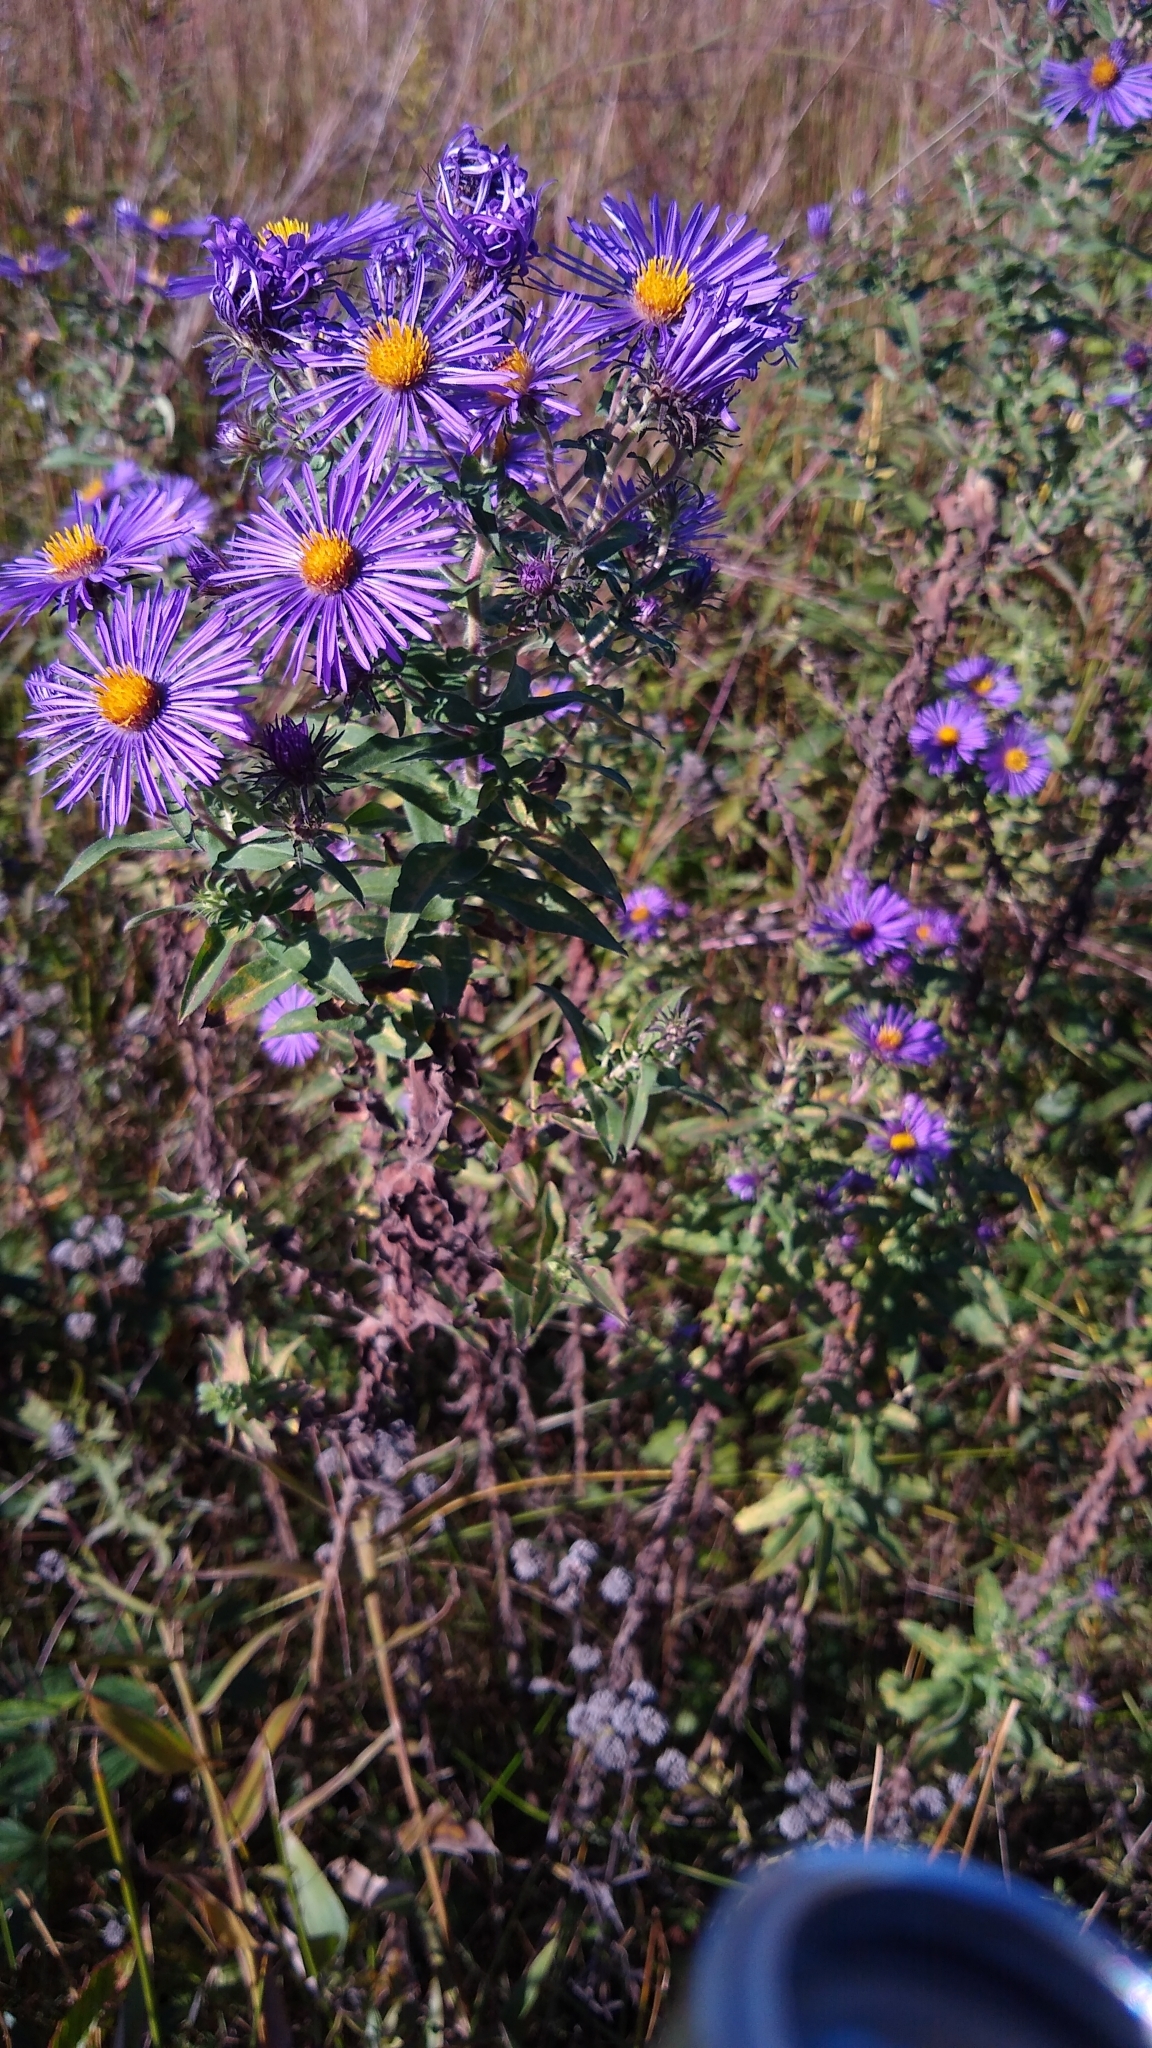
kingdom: Plantae
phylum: Tracheophyta
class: Magnoliopsida
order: Asterales
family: Asteraceae
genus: Symphyotrichum
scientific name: Symphyotrichum novae-angliae
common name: Michaelmas daisy
